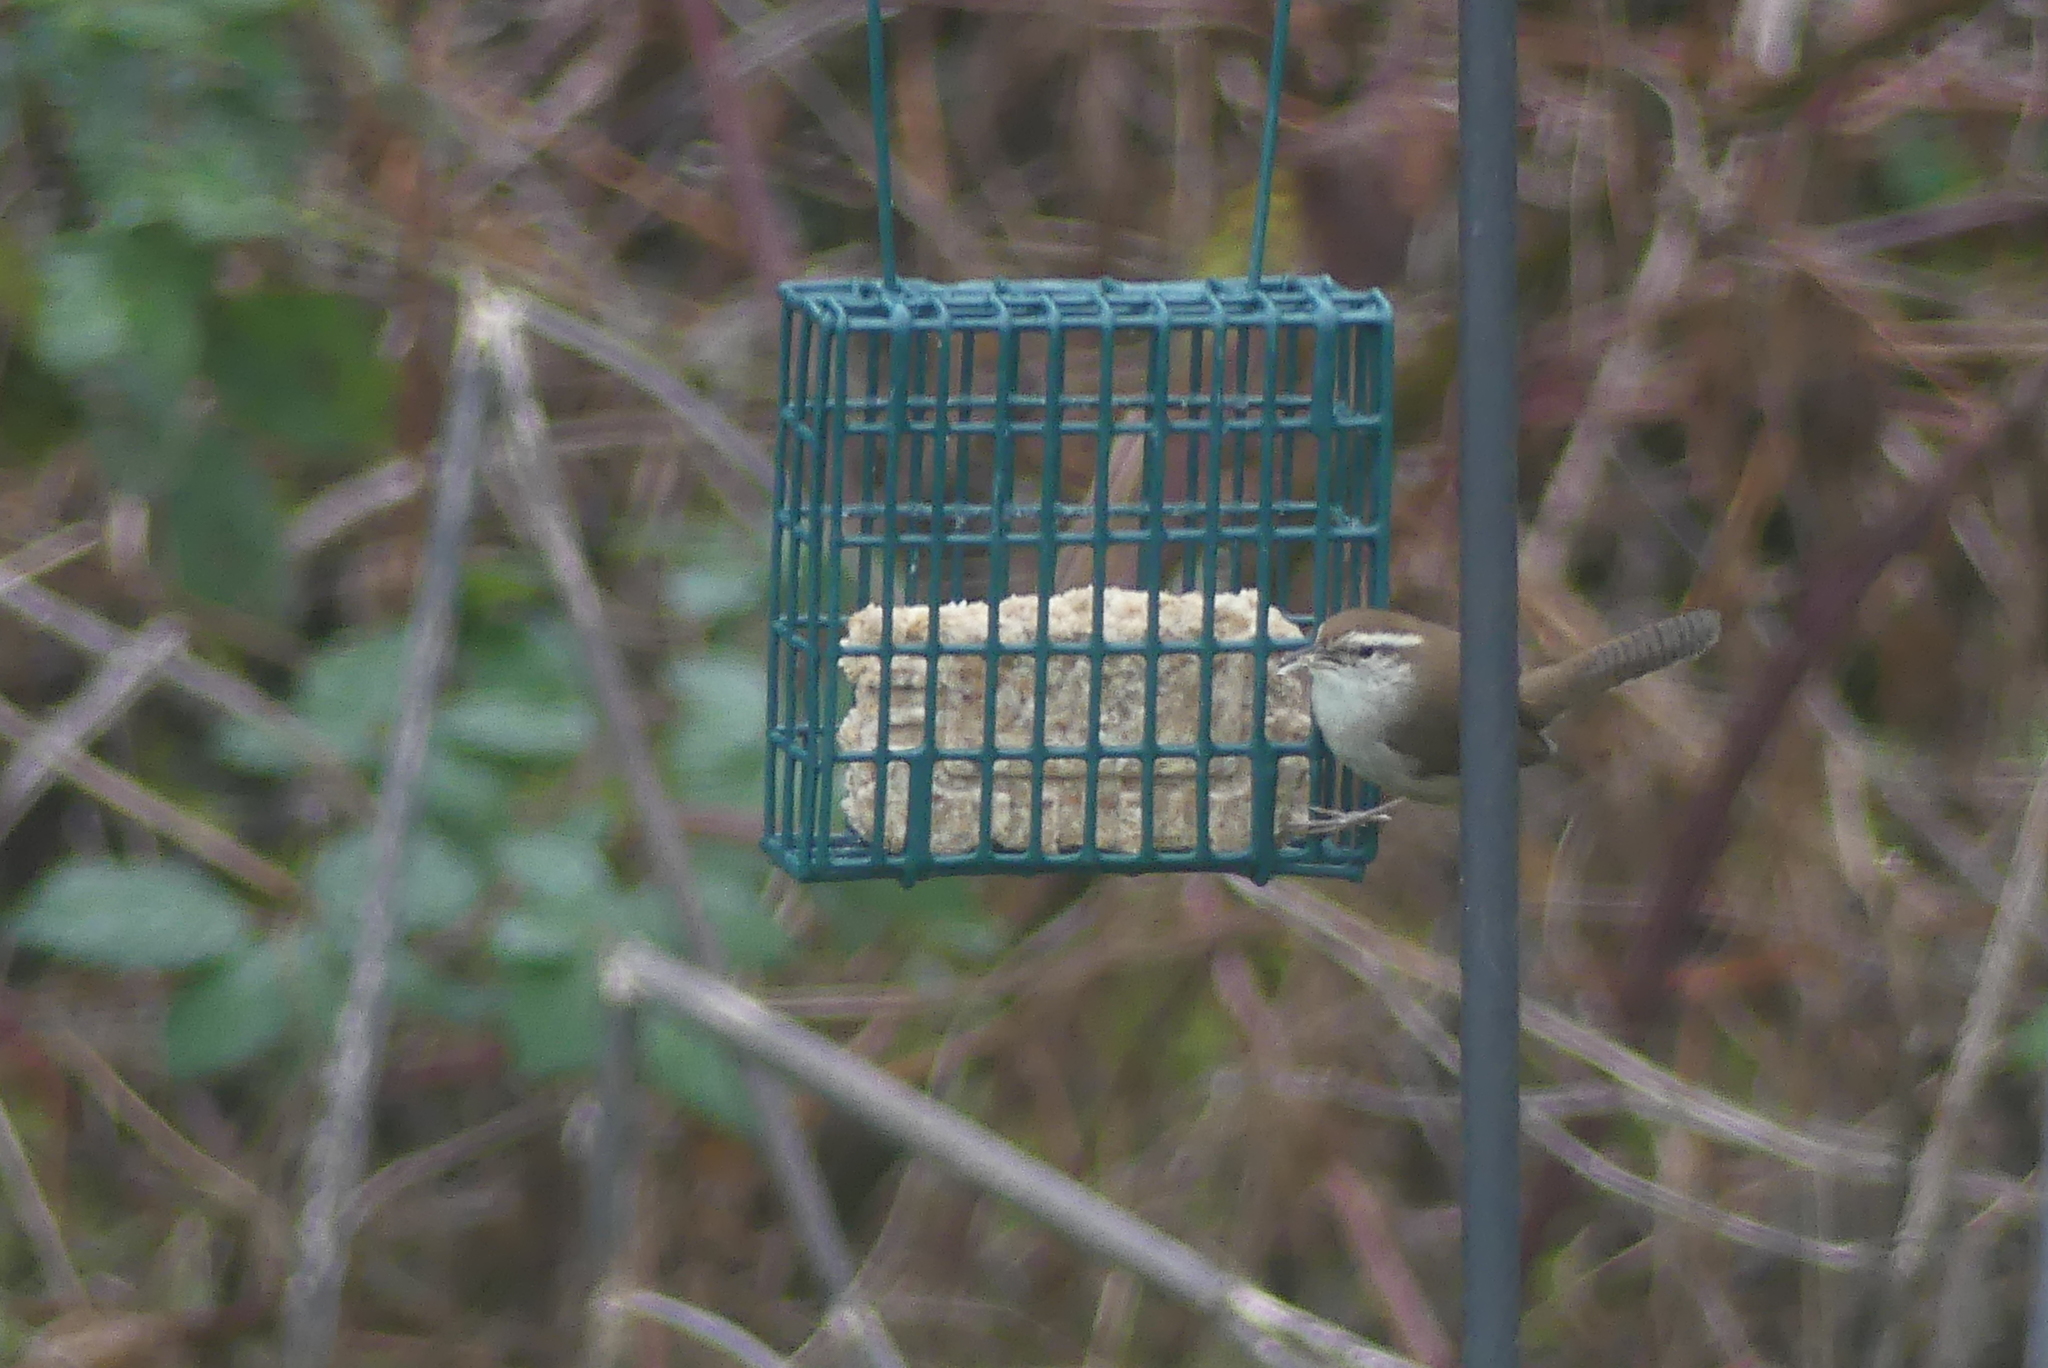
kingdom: Animalia
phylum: Chordata
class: Aves
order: Passeriformes
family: Troglodytidae
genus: Thryomanes
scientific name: Thryomanes bewickii
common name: Bewick's wren
